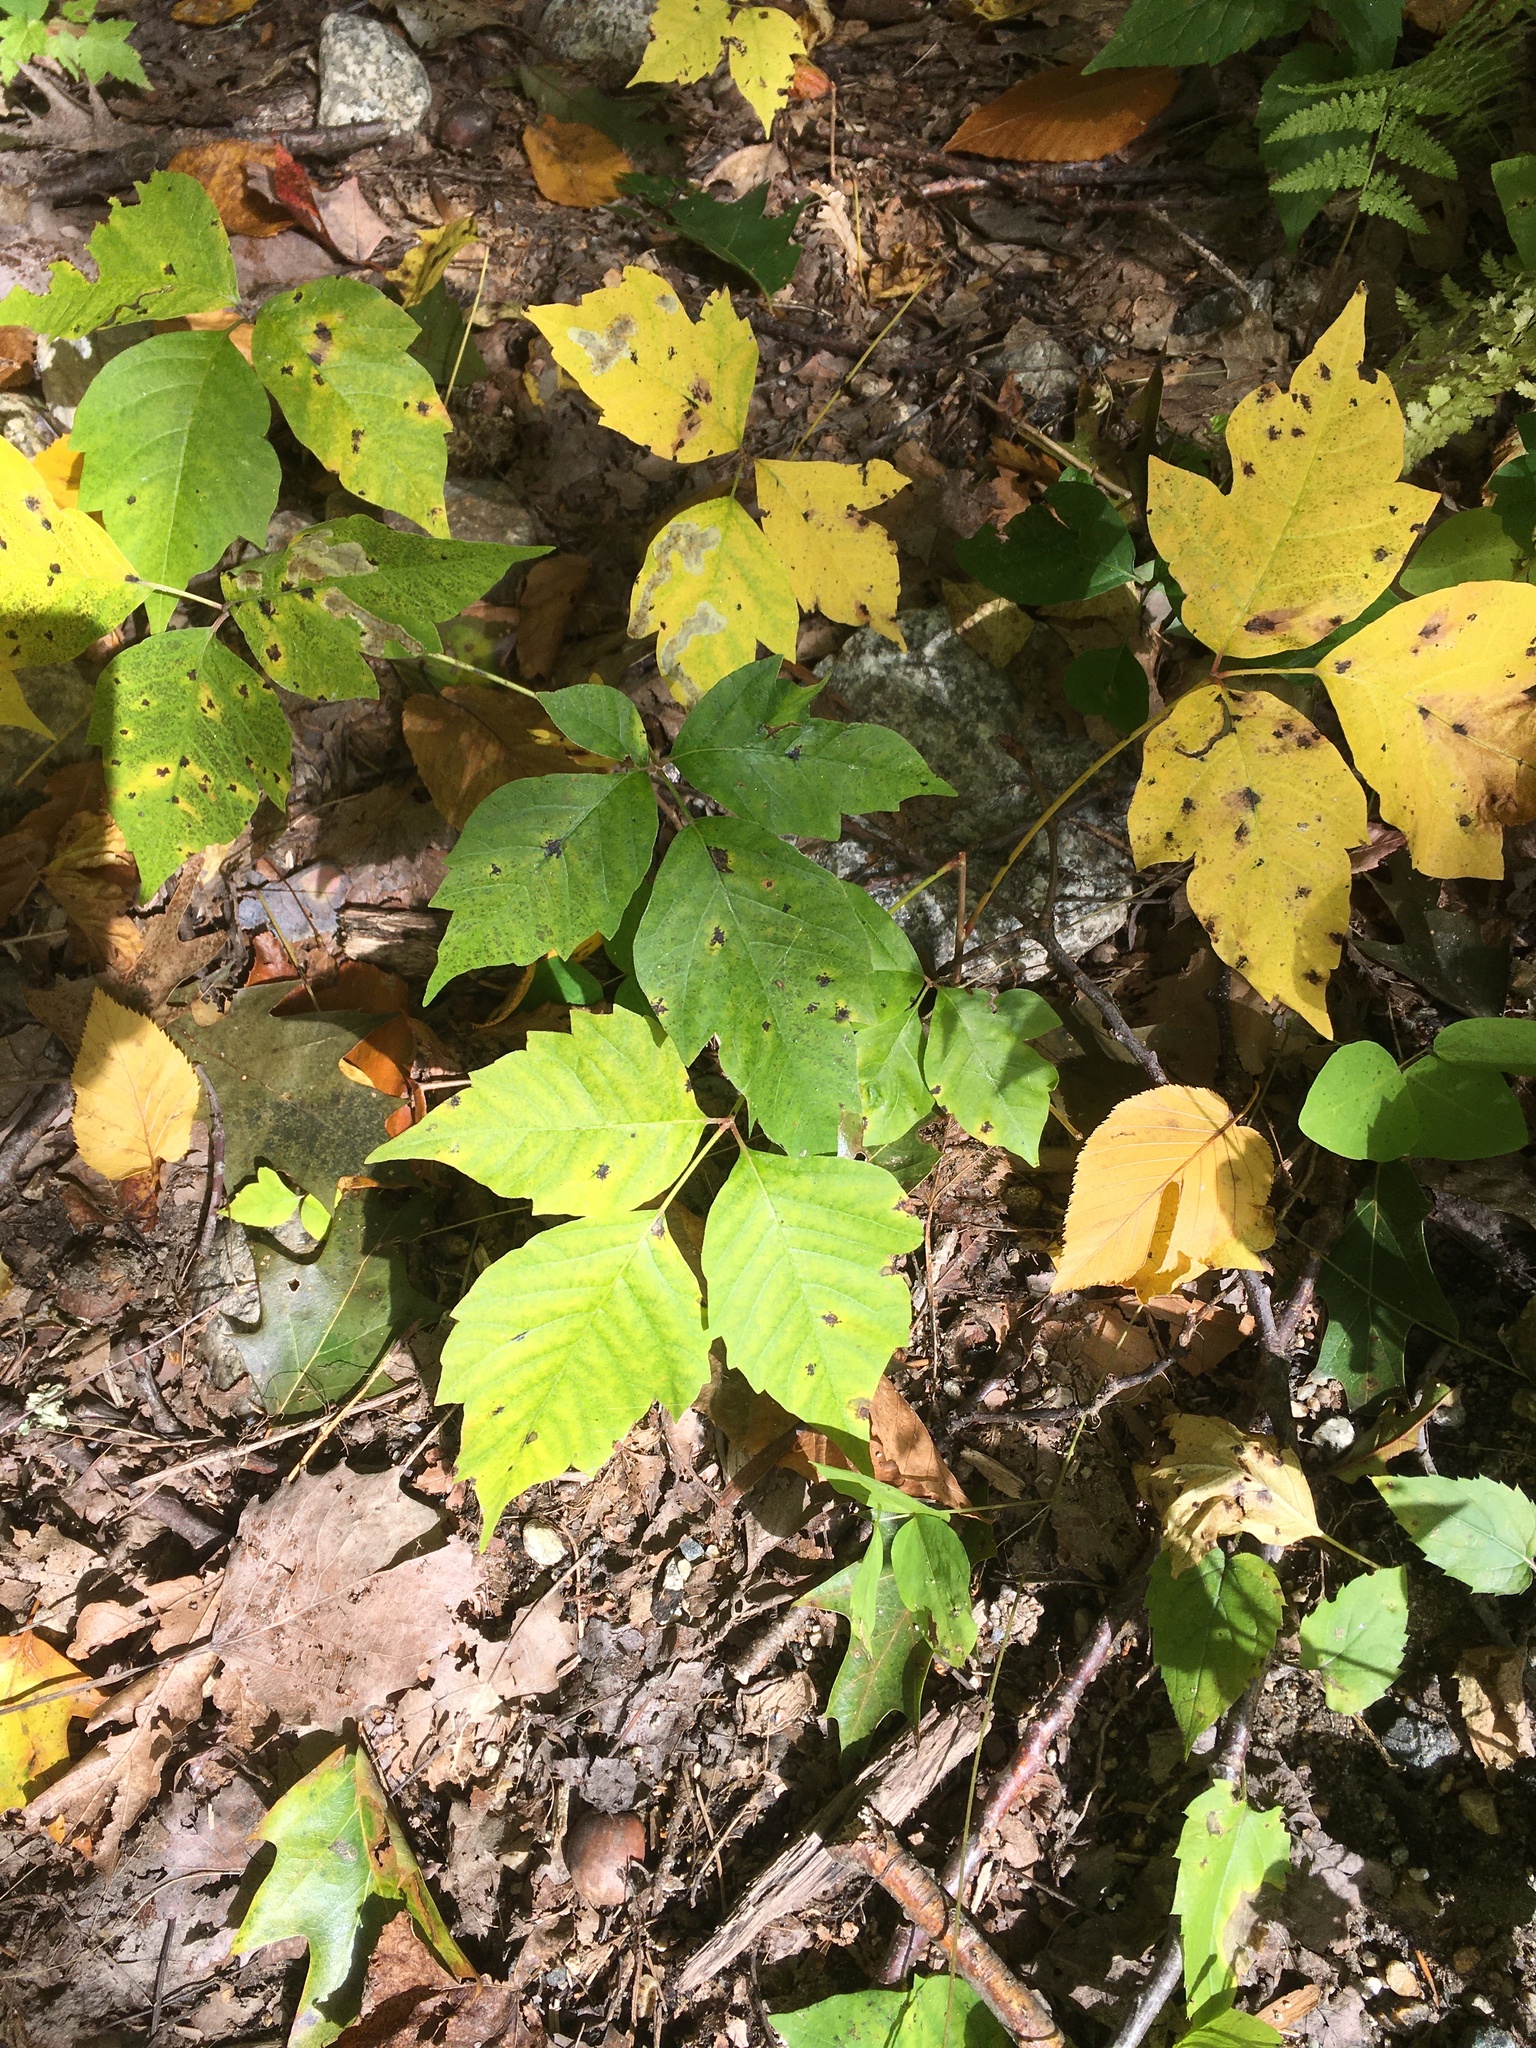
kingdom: Plantae
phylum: Tracheophyta
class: Magnoliopsida
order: Sapindales
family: Anacardiaceae
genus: Toxicodendron
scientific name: Toxicodendron radicans
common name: Poison ivy
